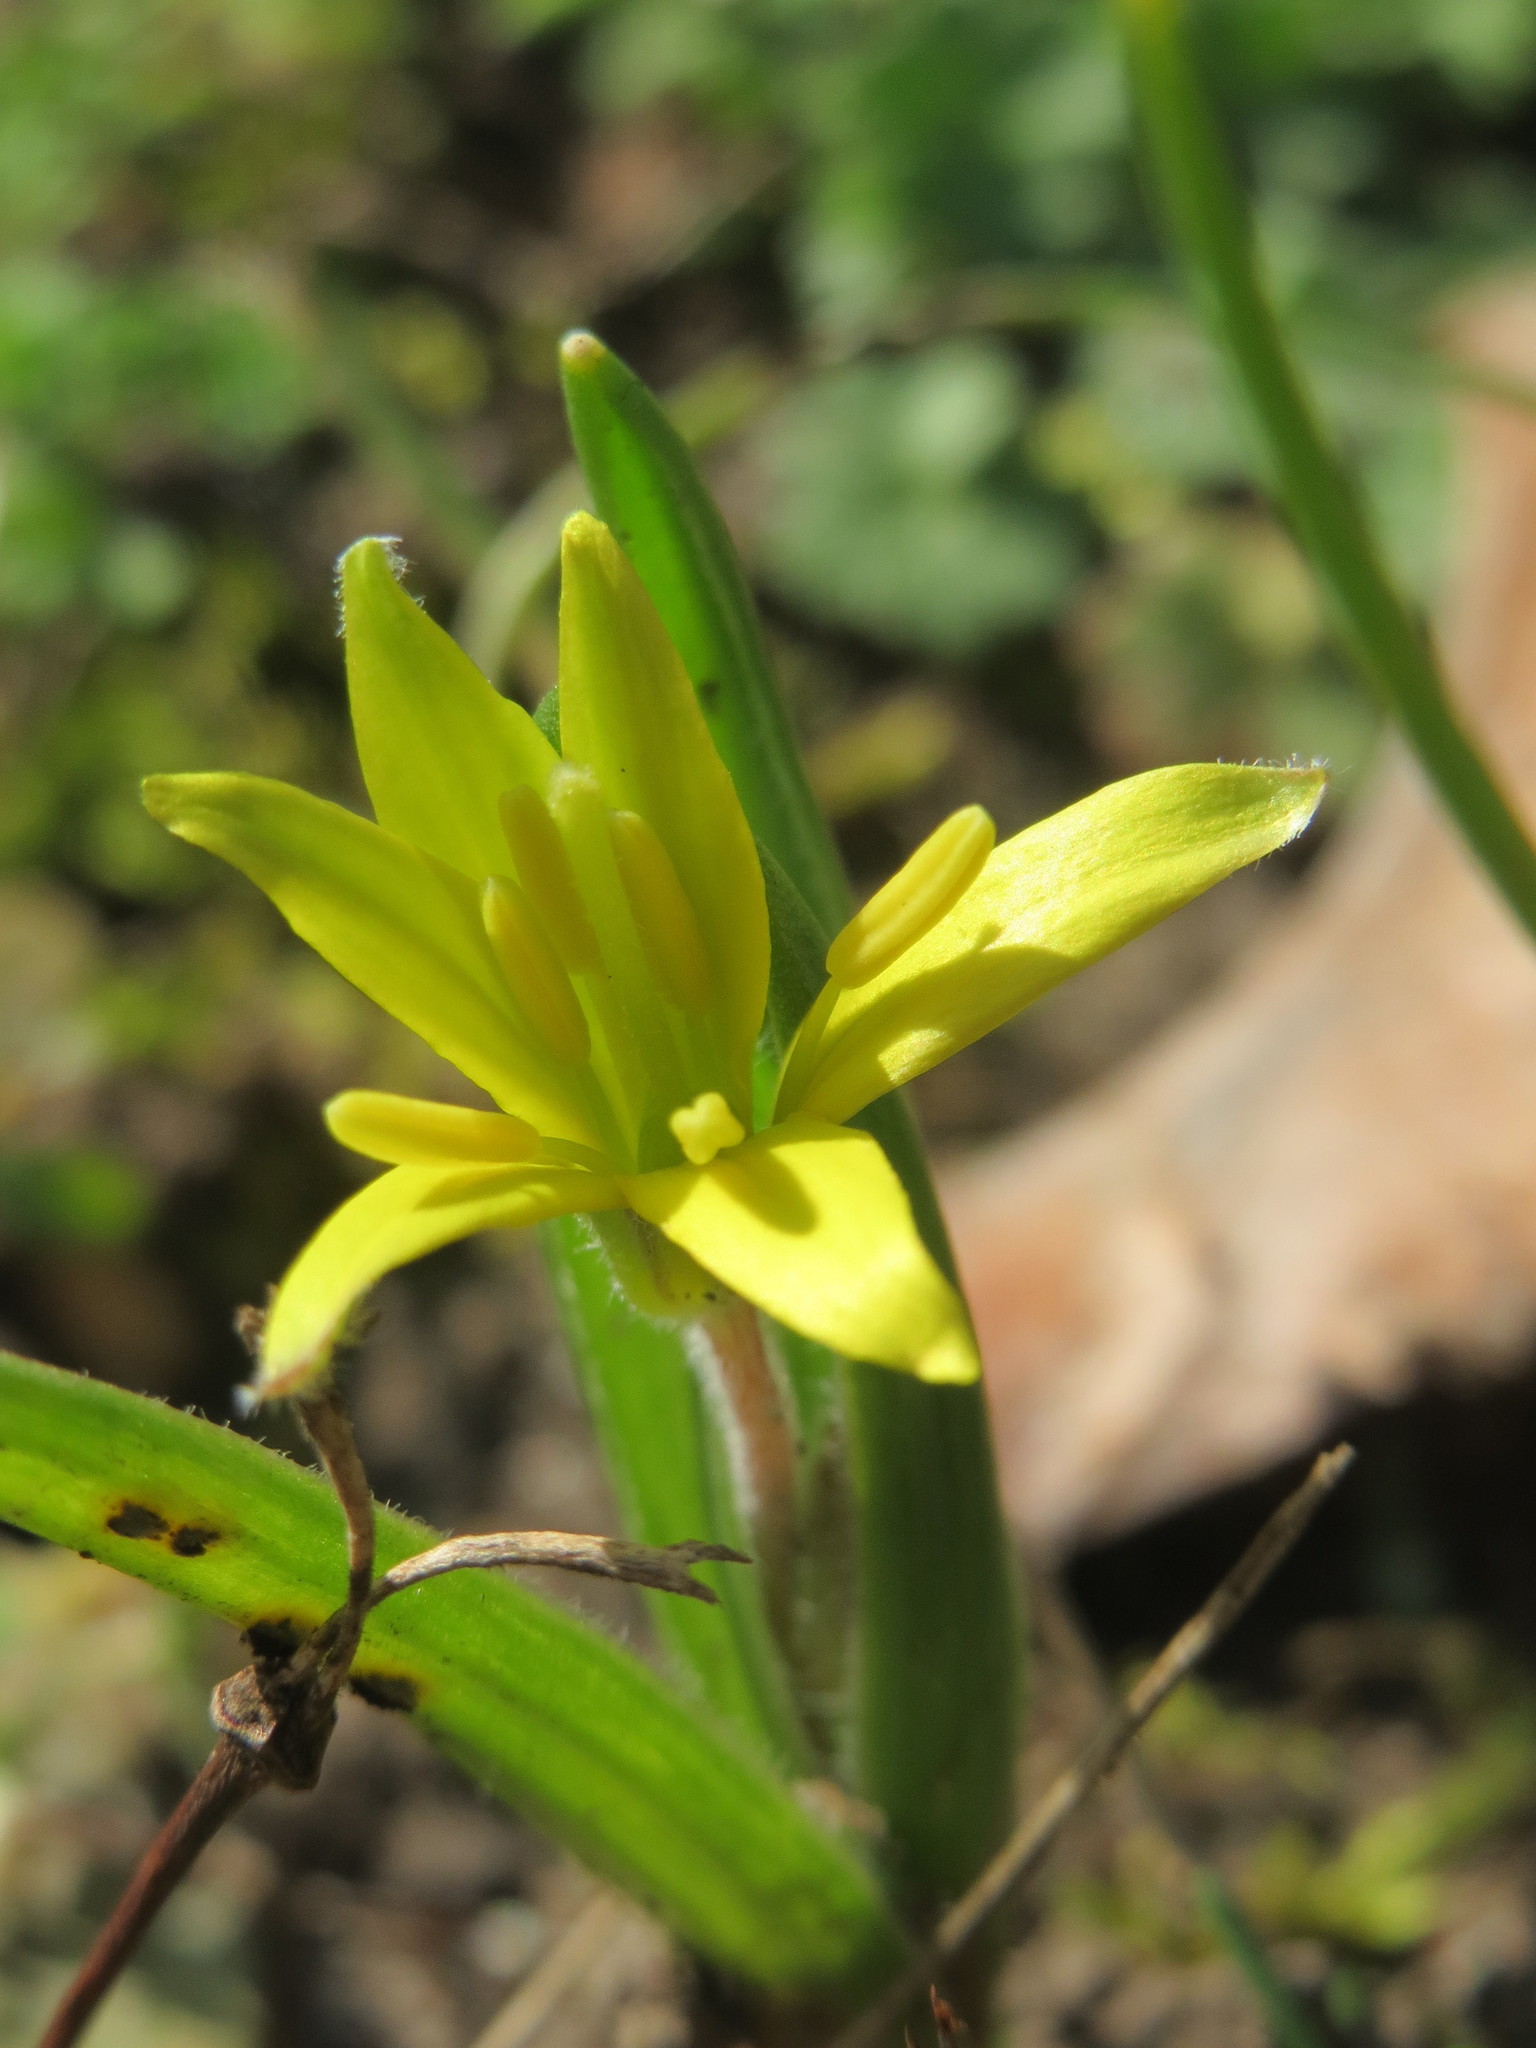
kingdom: Plantae
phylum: Tracheophyta
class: Liliopsida
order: Liliales
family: Liliaceae
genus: Gagea
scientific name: Gagea villosa
